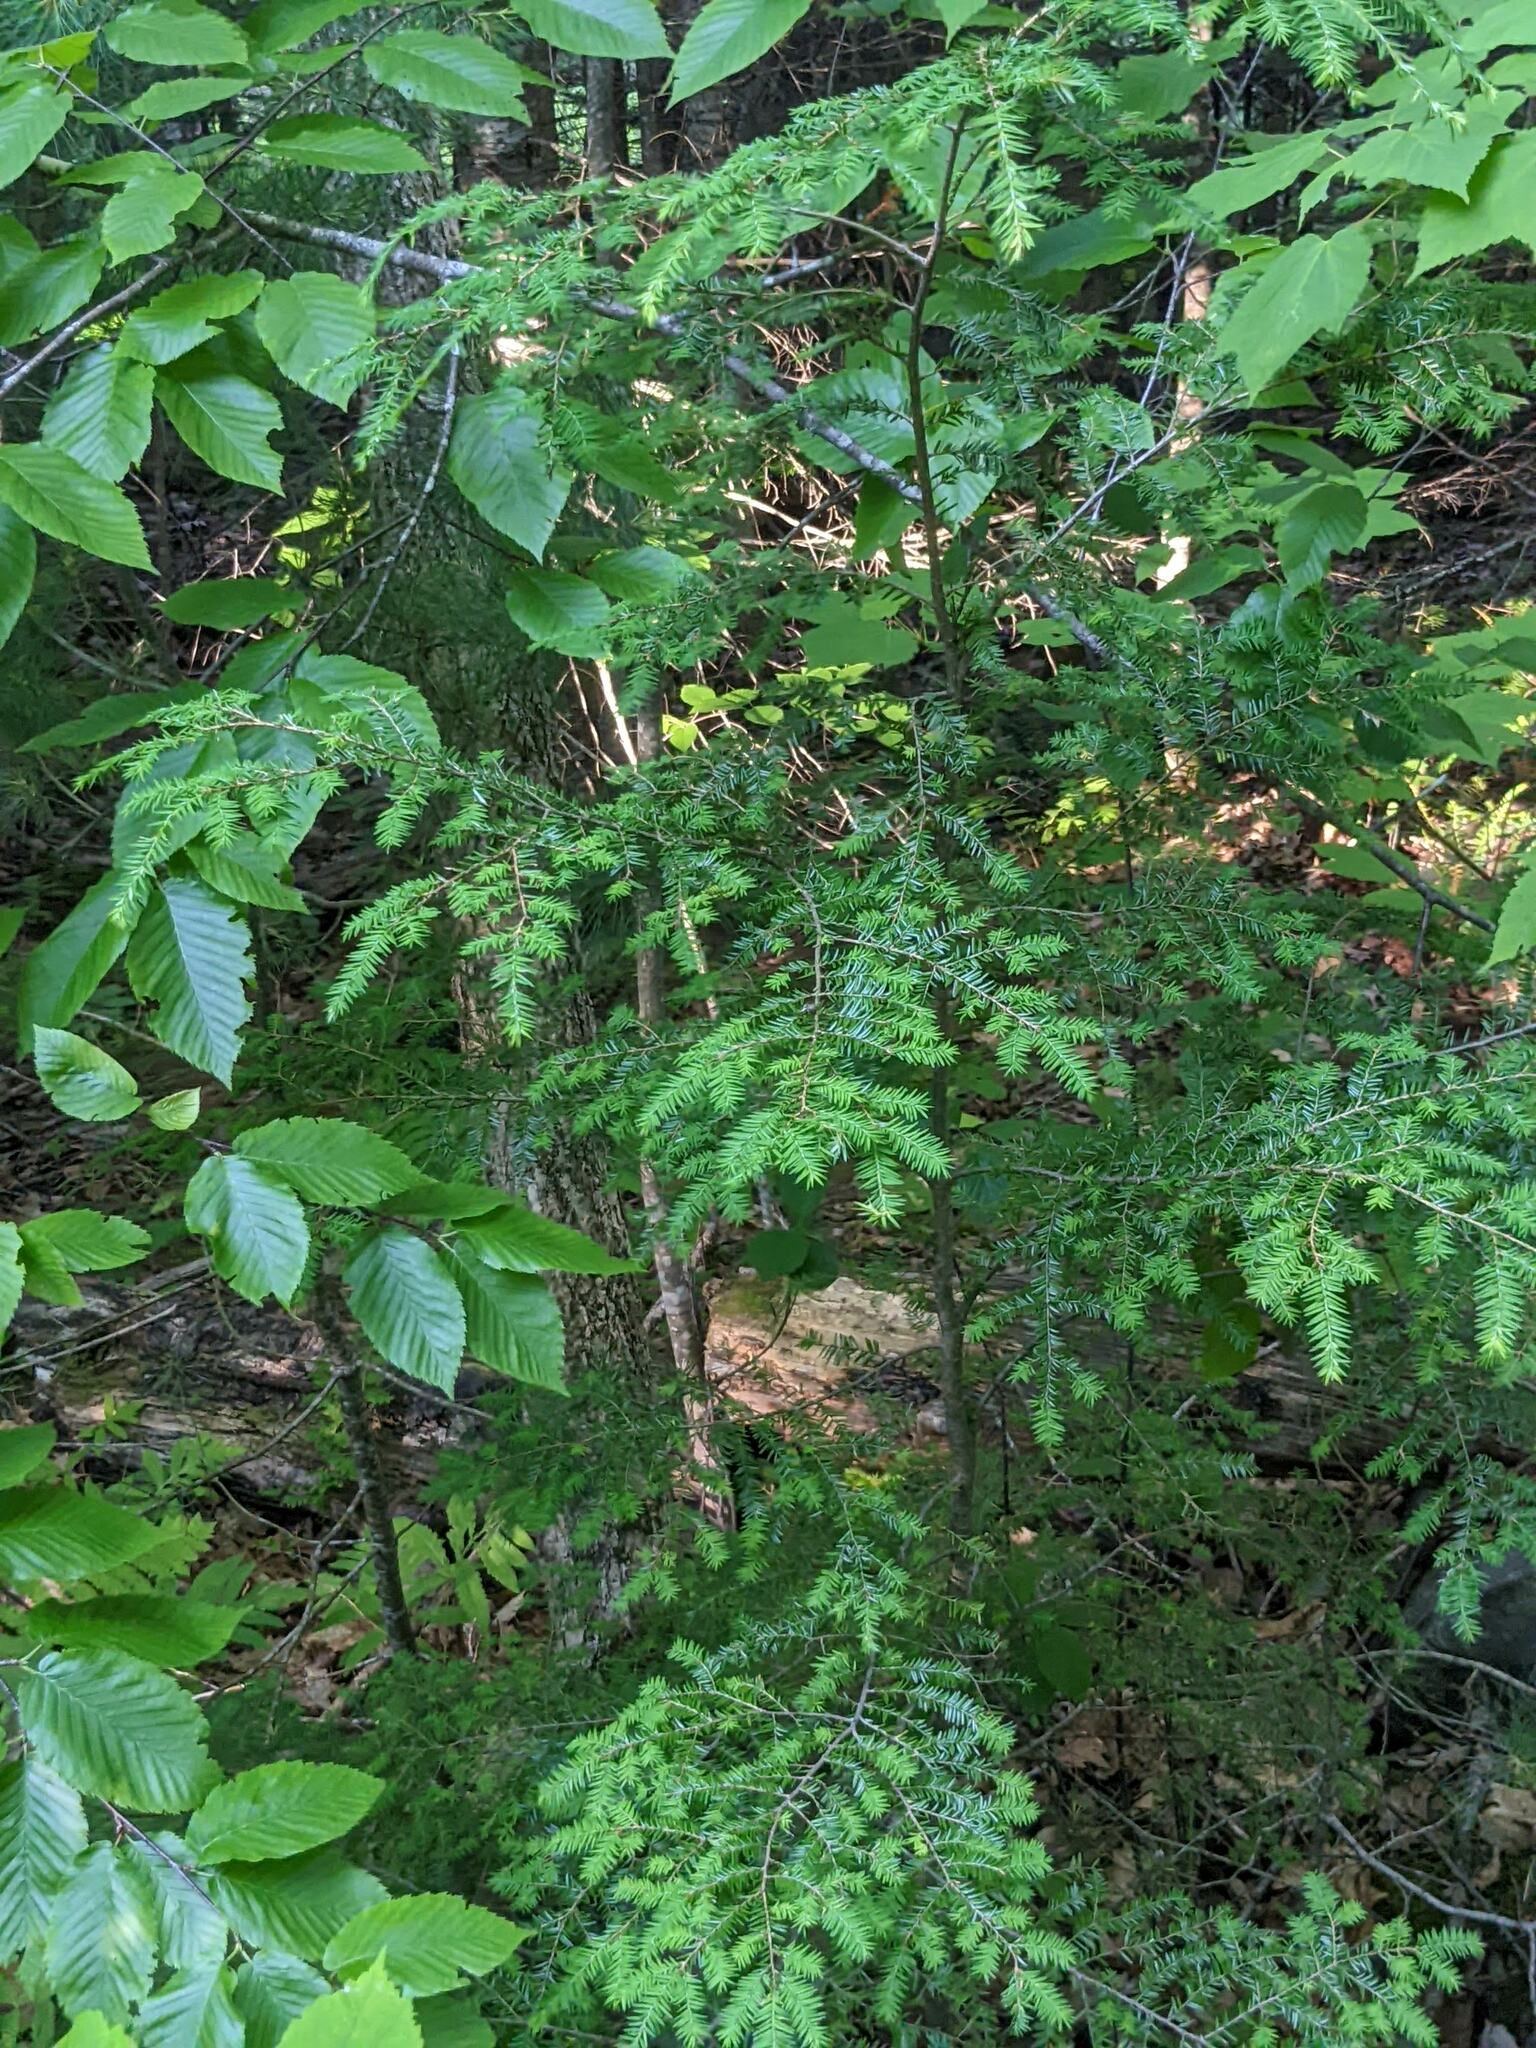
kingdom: Plantae
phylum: Tracheophyta
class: Pinopsida
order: Pinales
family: Pinaceae
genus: Tsuga
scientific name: Tsuga canadensis
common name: Eastern hemlock
